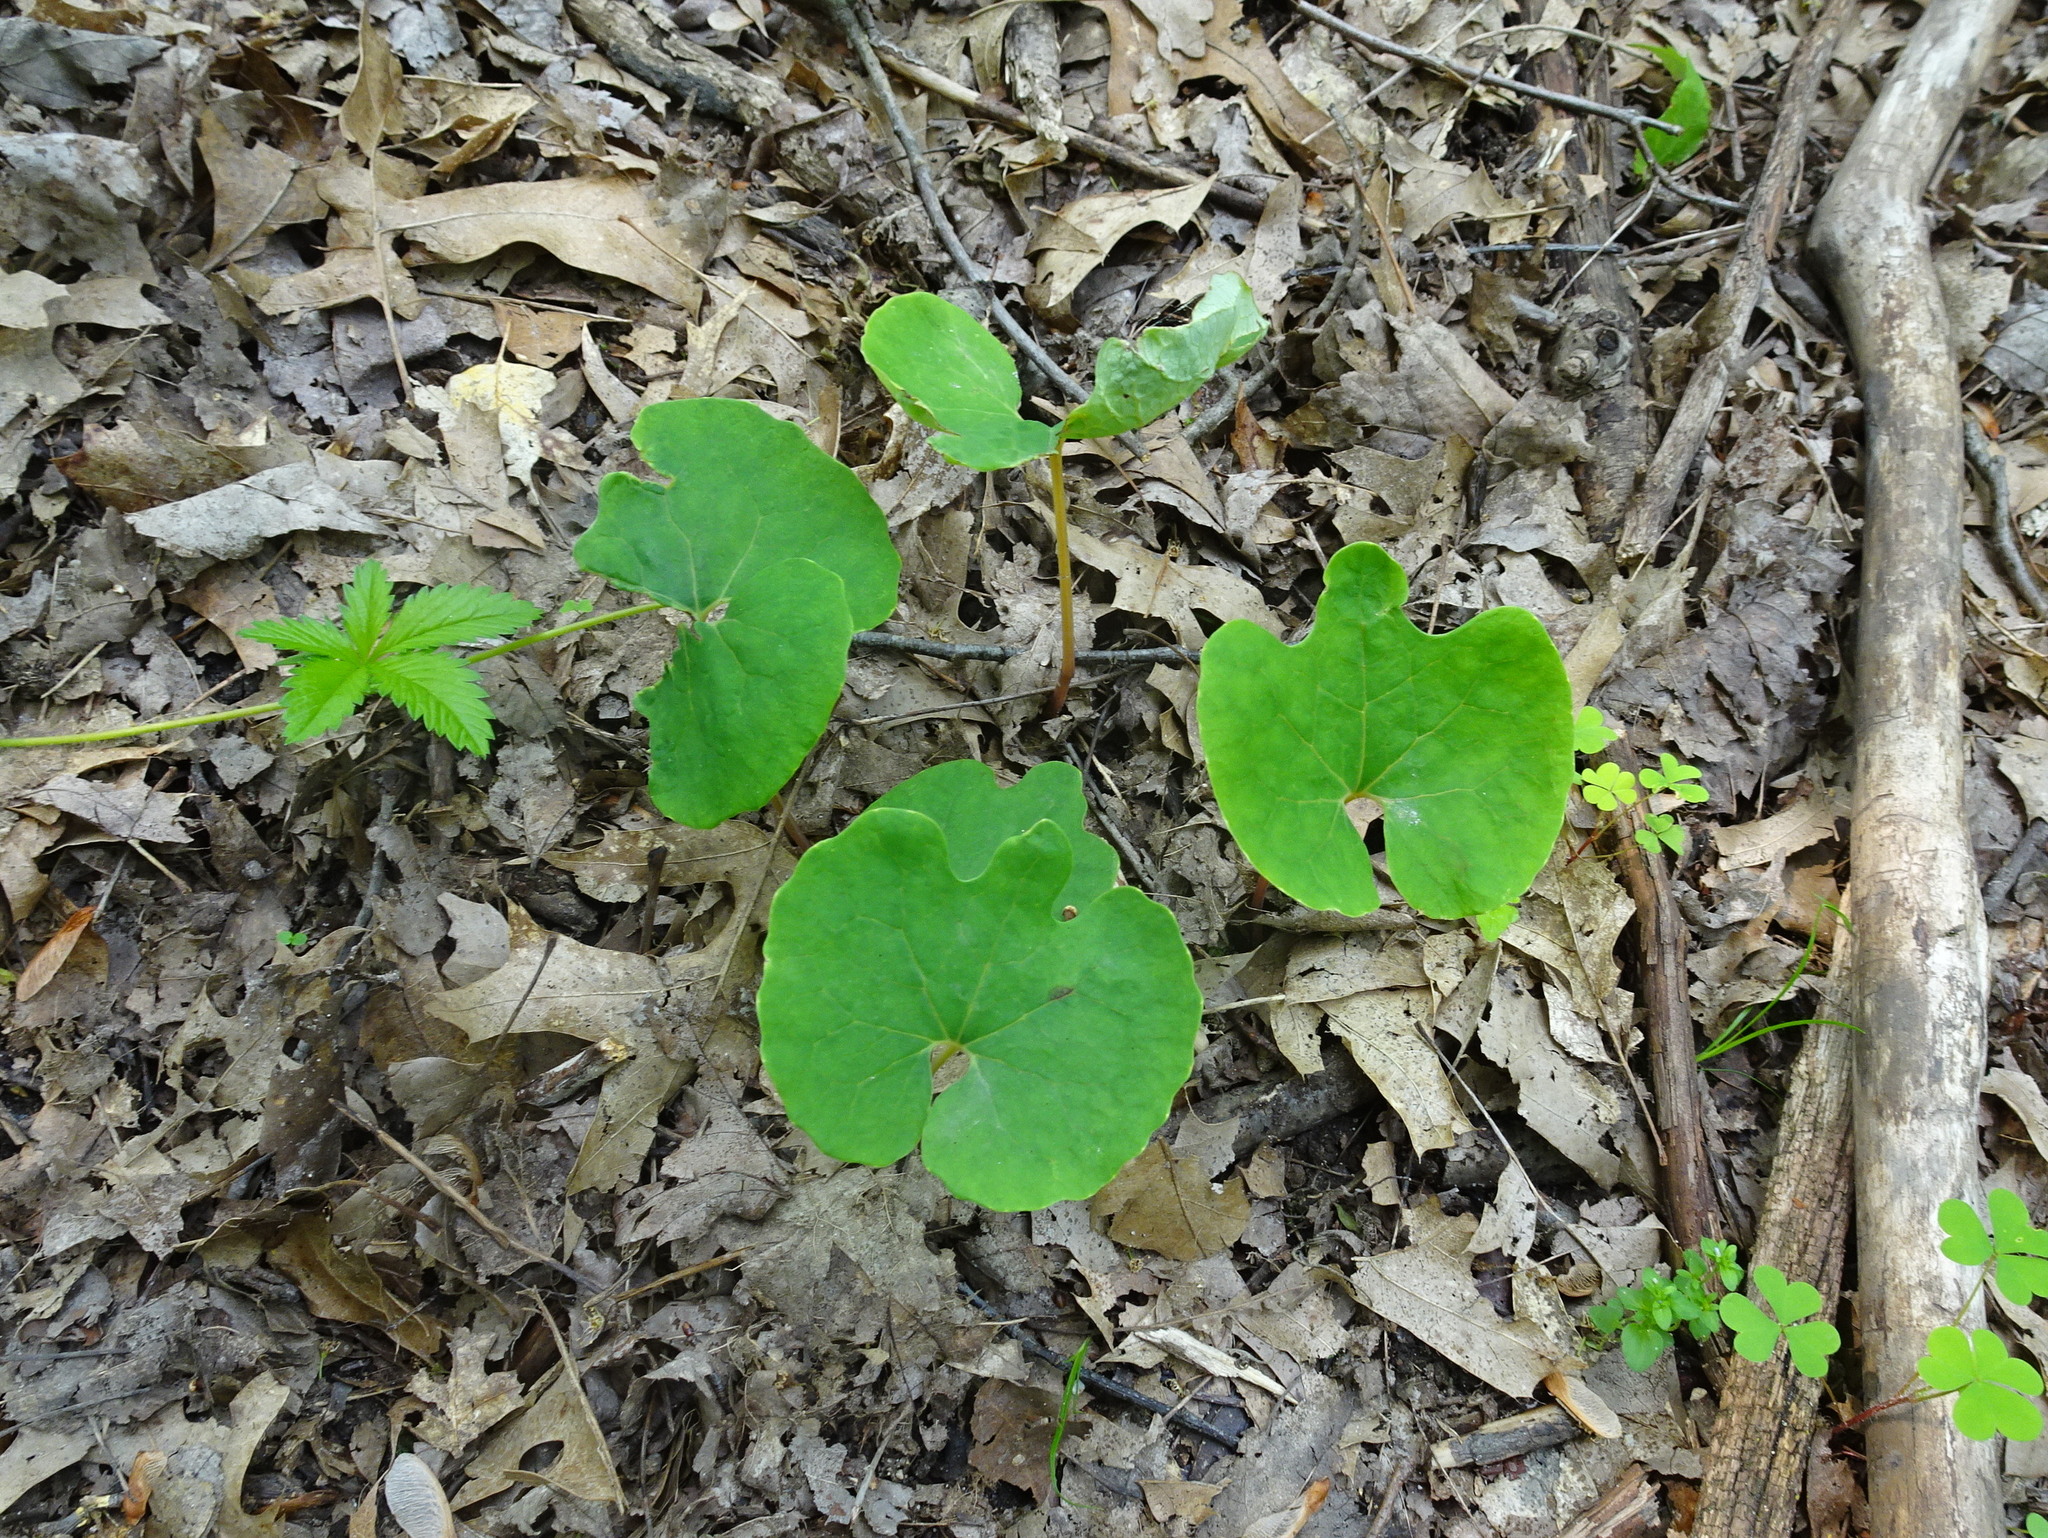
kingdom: Plantae
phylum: Tracheophyta
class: Magnoliopsida
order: Ranunculales
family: Papaveraceae
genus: Sanguinaria
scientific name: Sanguinaria canadensis
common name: Bloodroot
